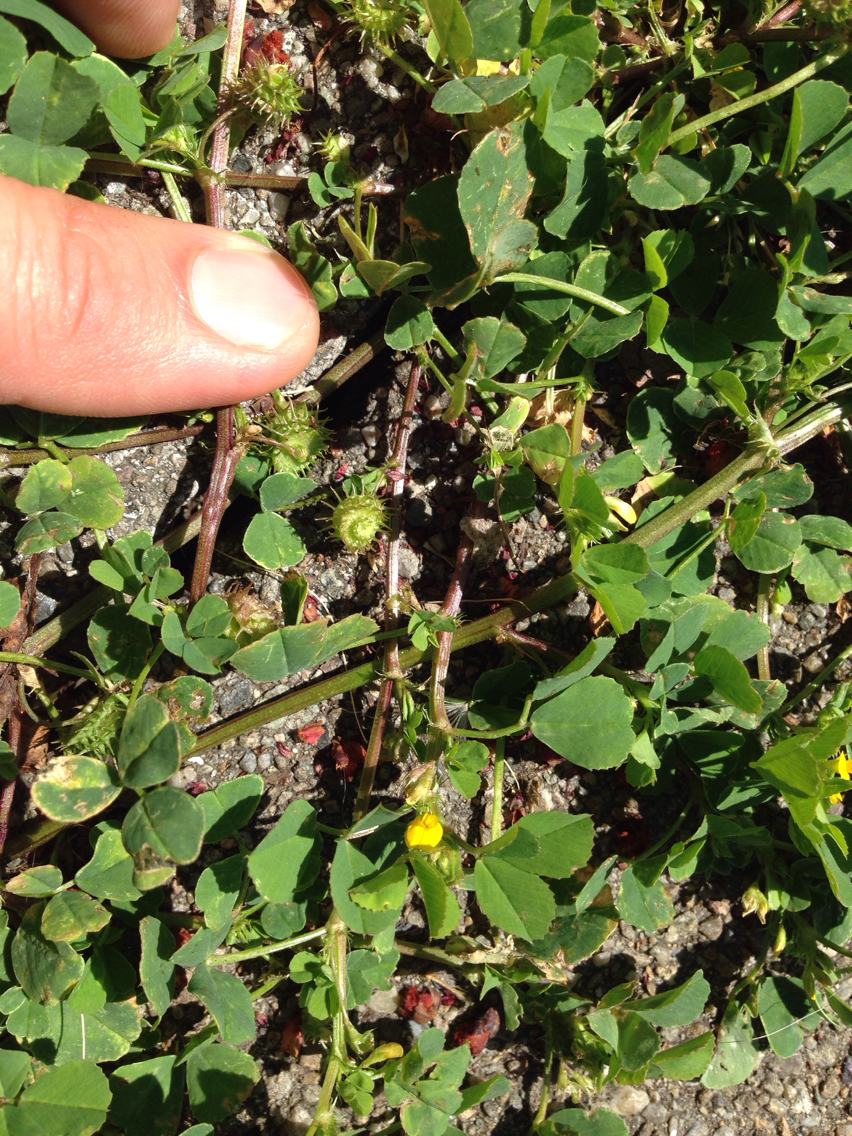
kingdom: Plantae
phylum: Tracheophyta
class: Magnoliopsida
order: Fabales
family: Fabaceae
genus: Medicago
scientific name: Medicago polymorpha
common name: Burclover
